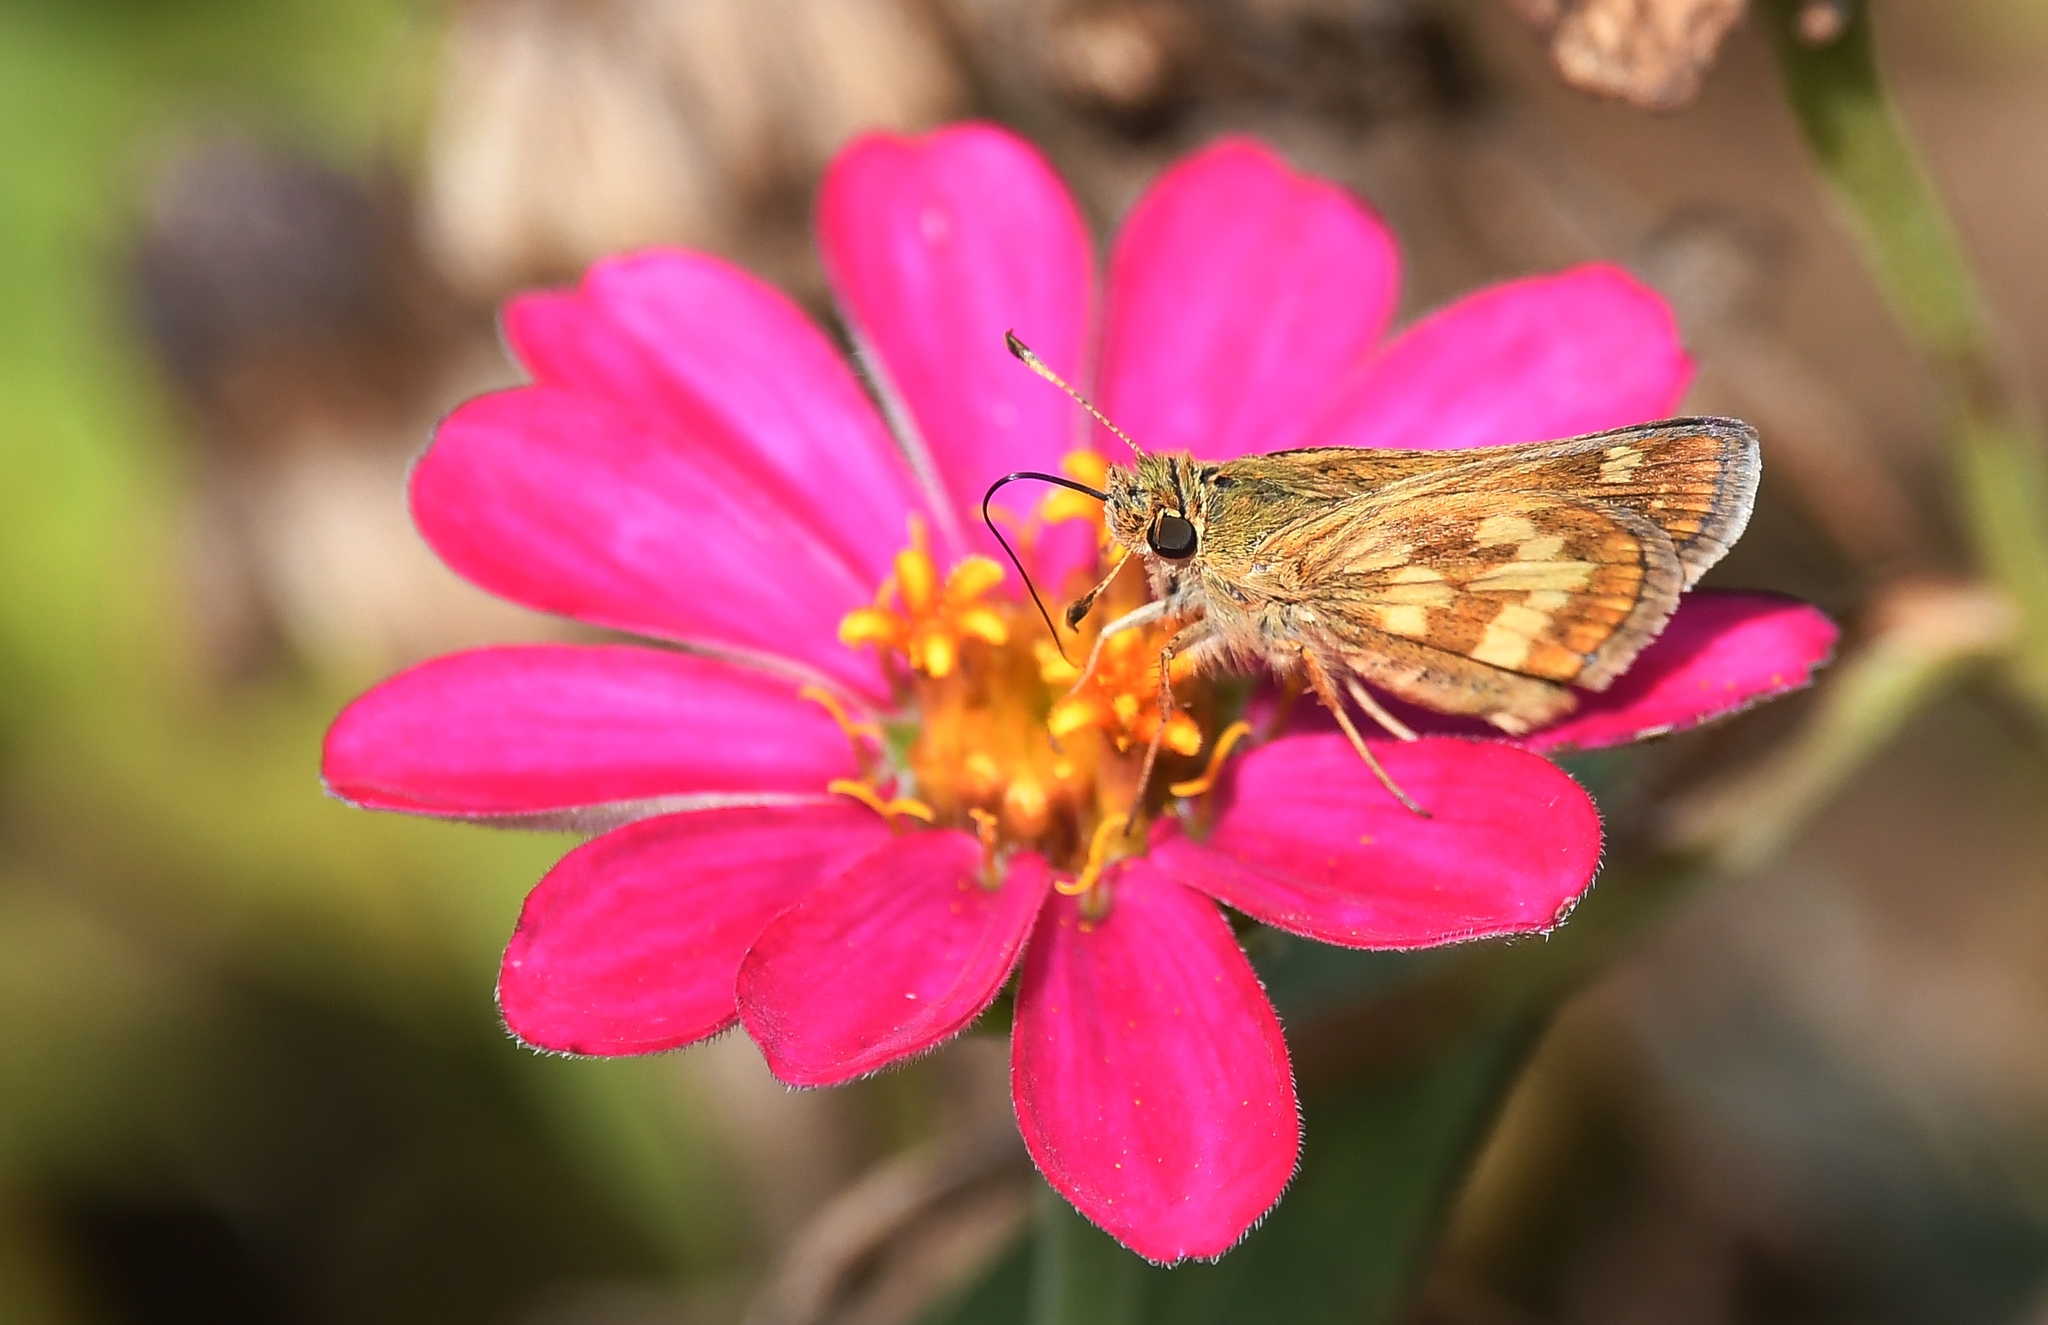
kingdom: Animalia
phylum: Arthropoda
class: Insecta
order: Lepidoptera
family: Hesperiidae
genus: Polites
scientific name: Polites coras
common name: Peck's skipper
